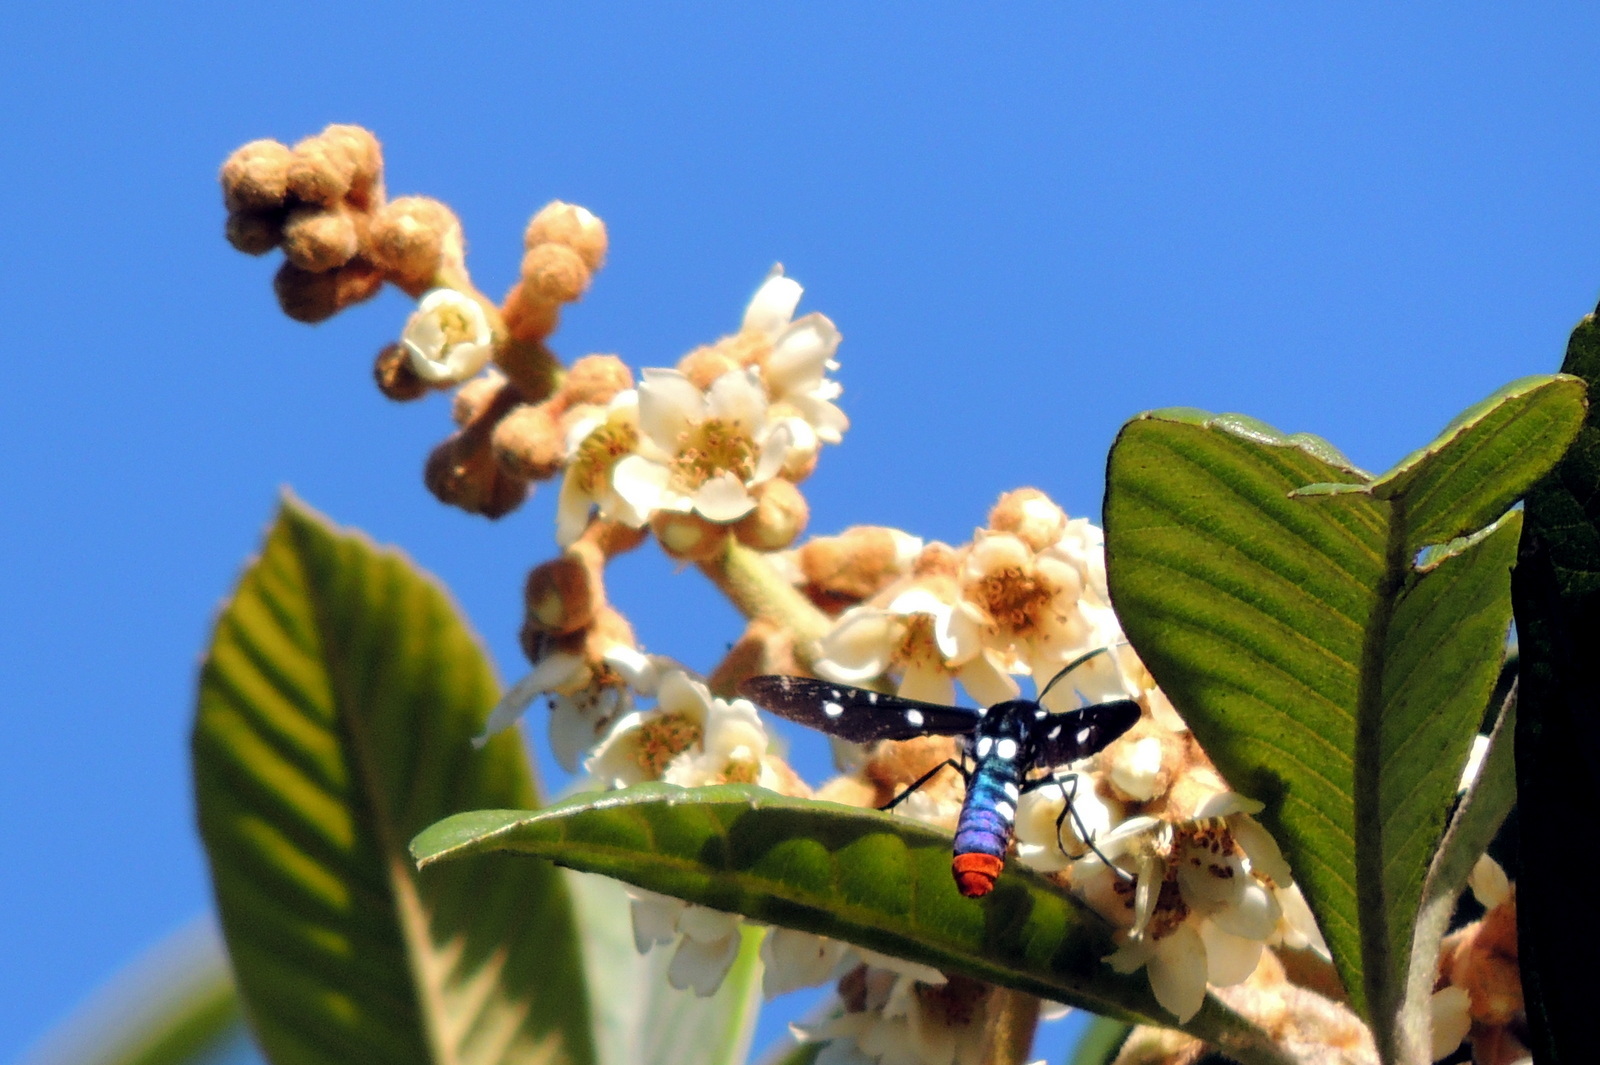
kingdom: Animalia
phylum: Arthropoda
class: Insecta
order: Lepidoptera
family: Erebidae
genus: Syntomeida
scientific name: Syntomeida epilais
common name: Polka-dot wasp moth
